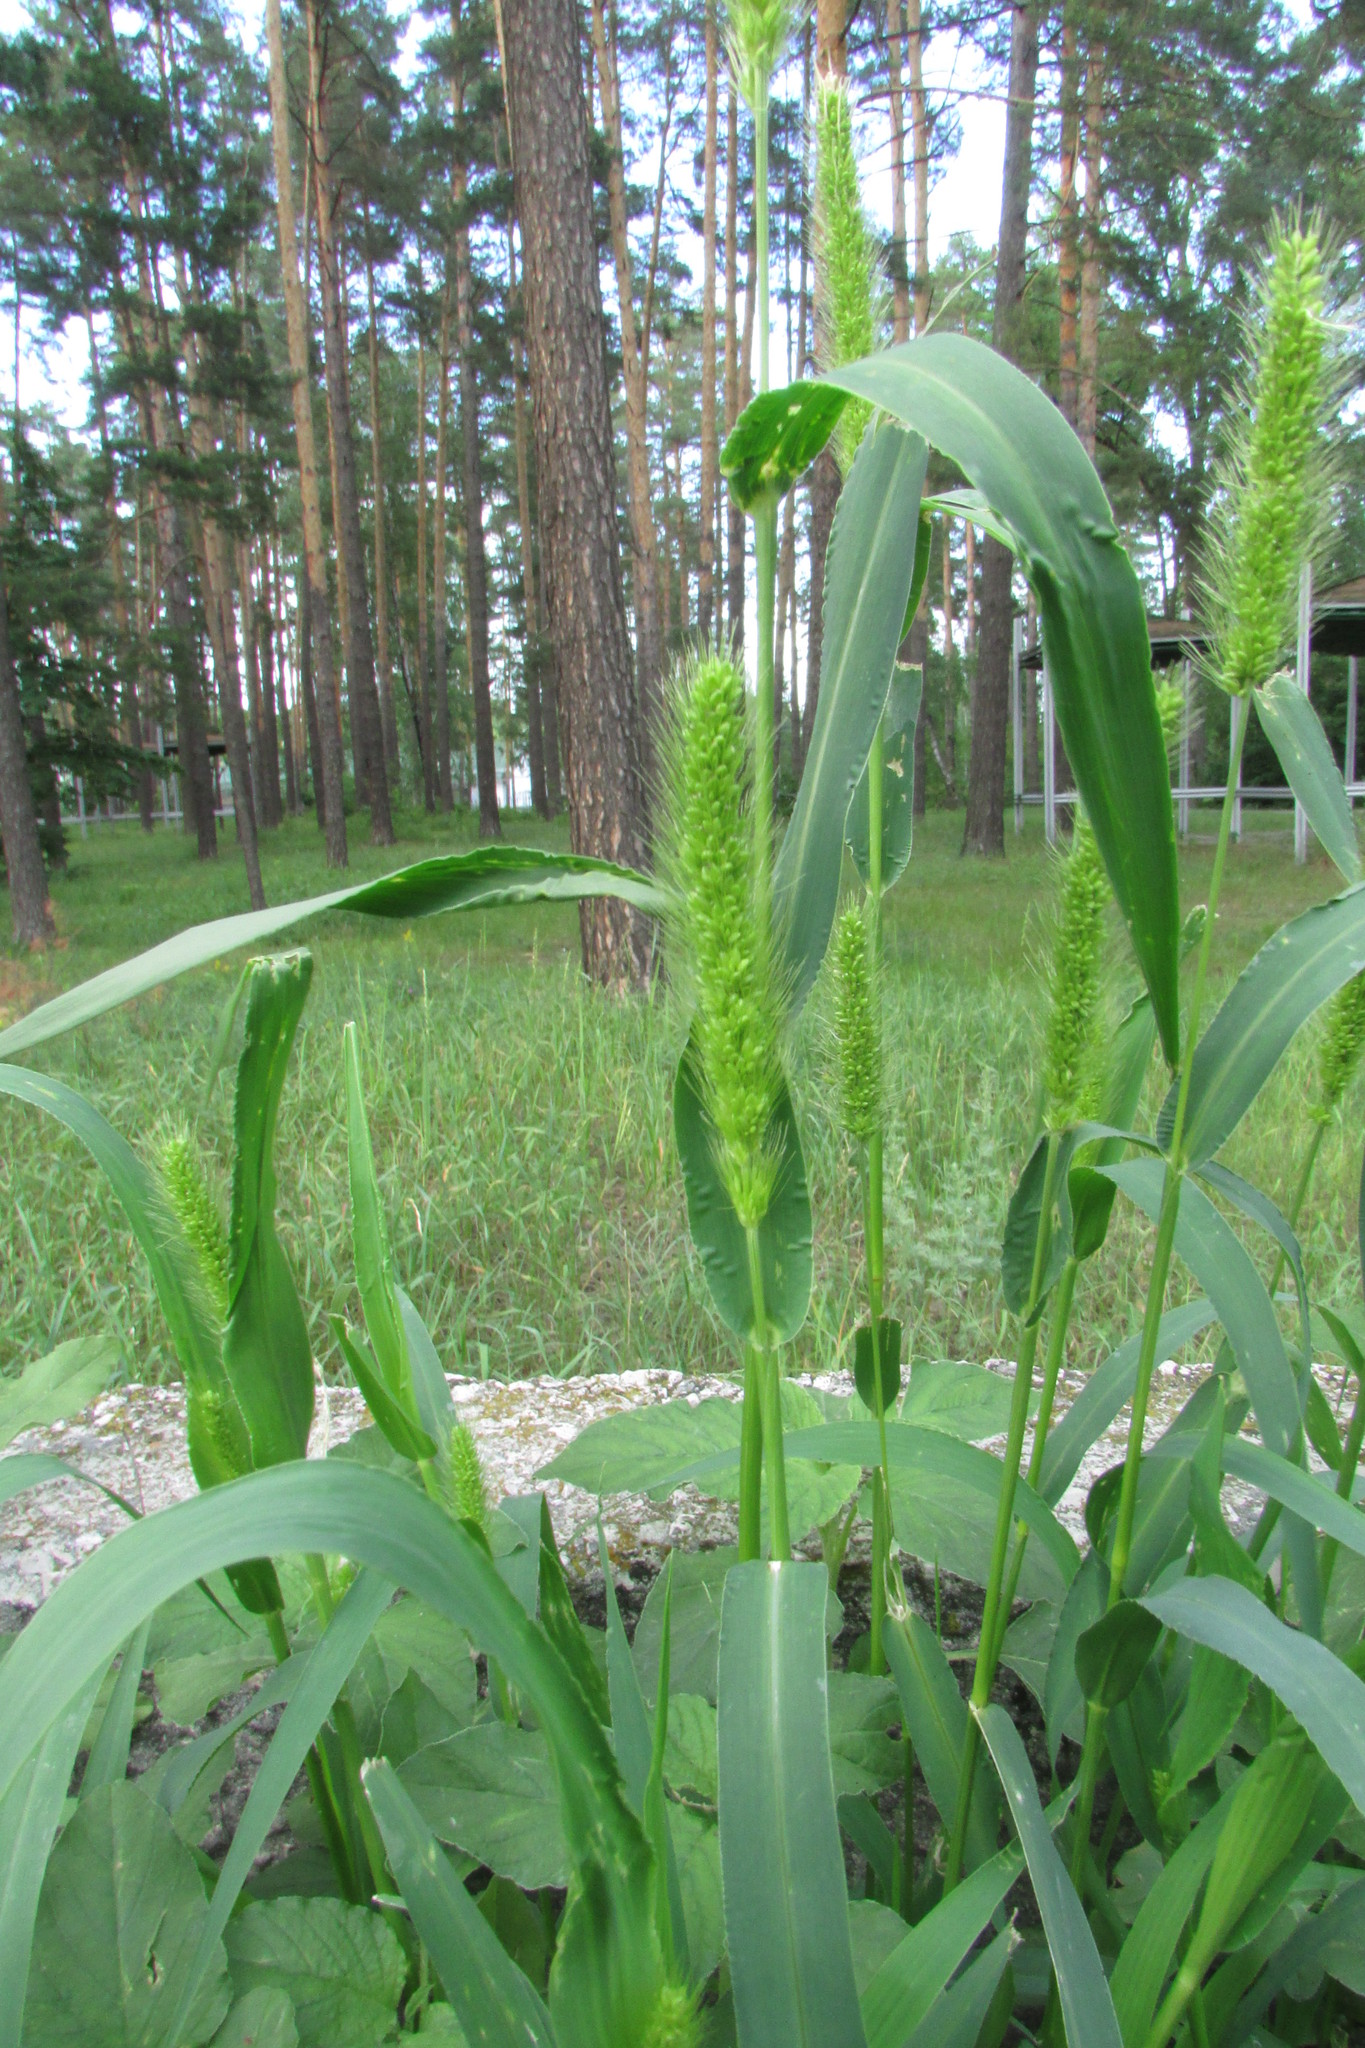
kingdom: Plantae
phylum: Tracheophyta
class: Liliopsida
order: Poales
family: Poaceae
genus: Setaria
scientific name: Setaria viridis
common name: Green bristlegrass
